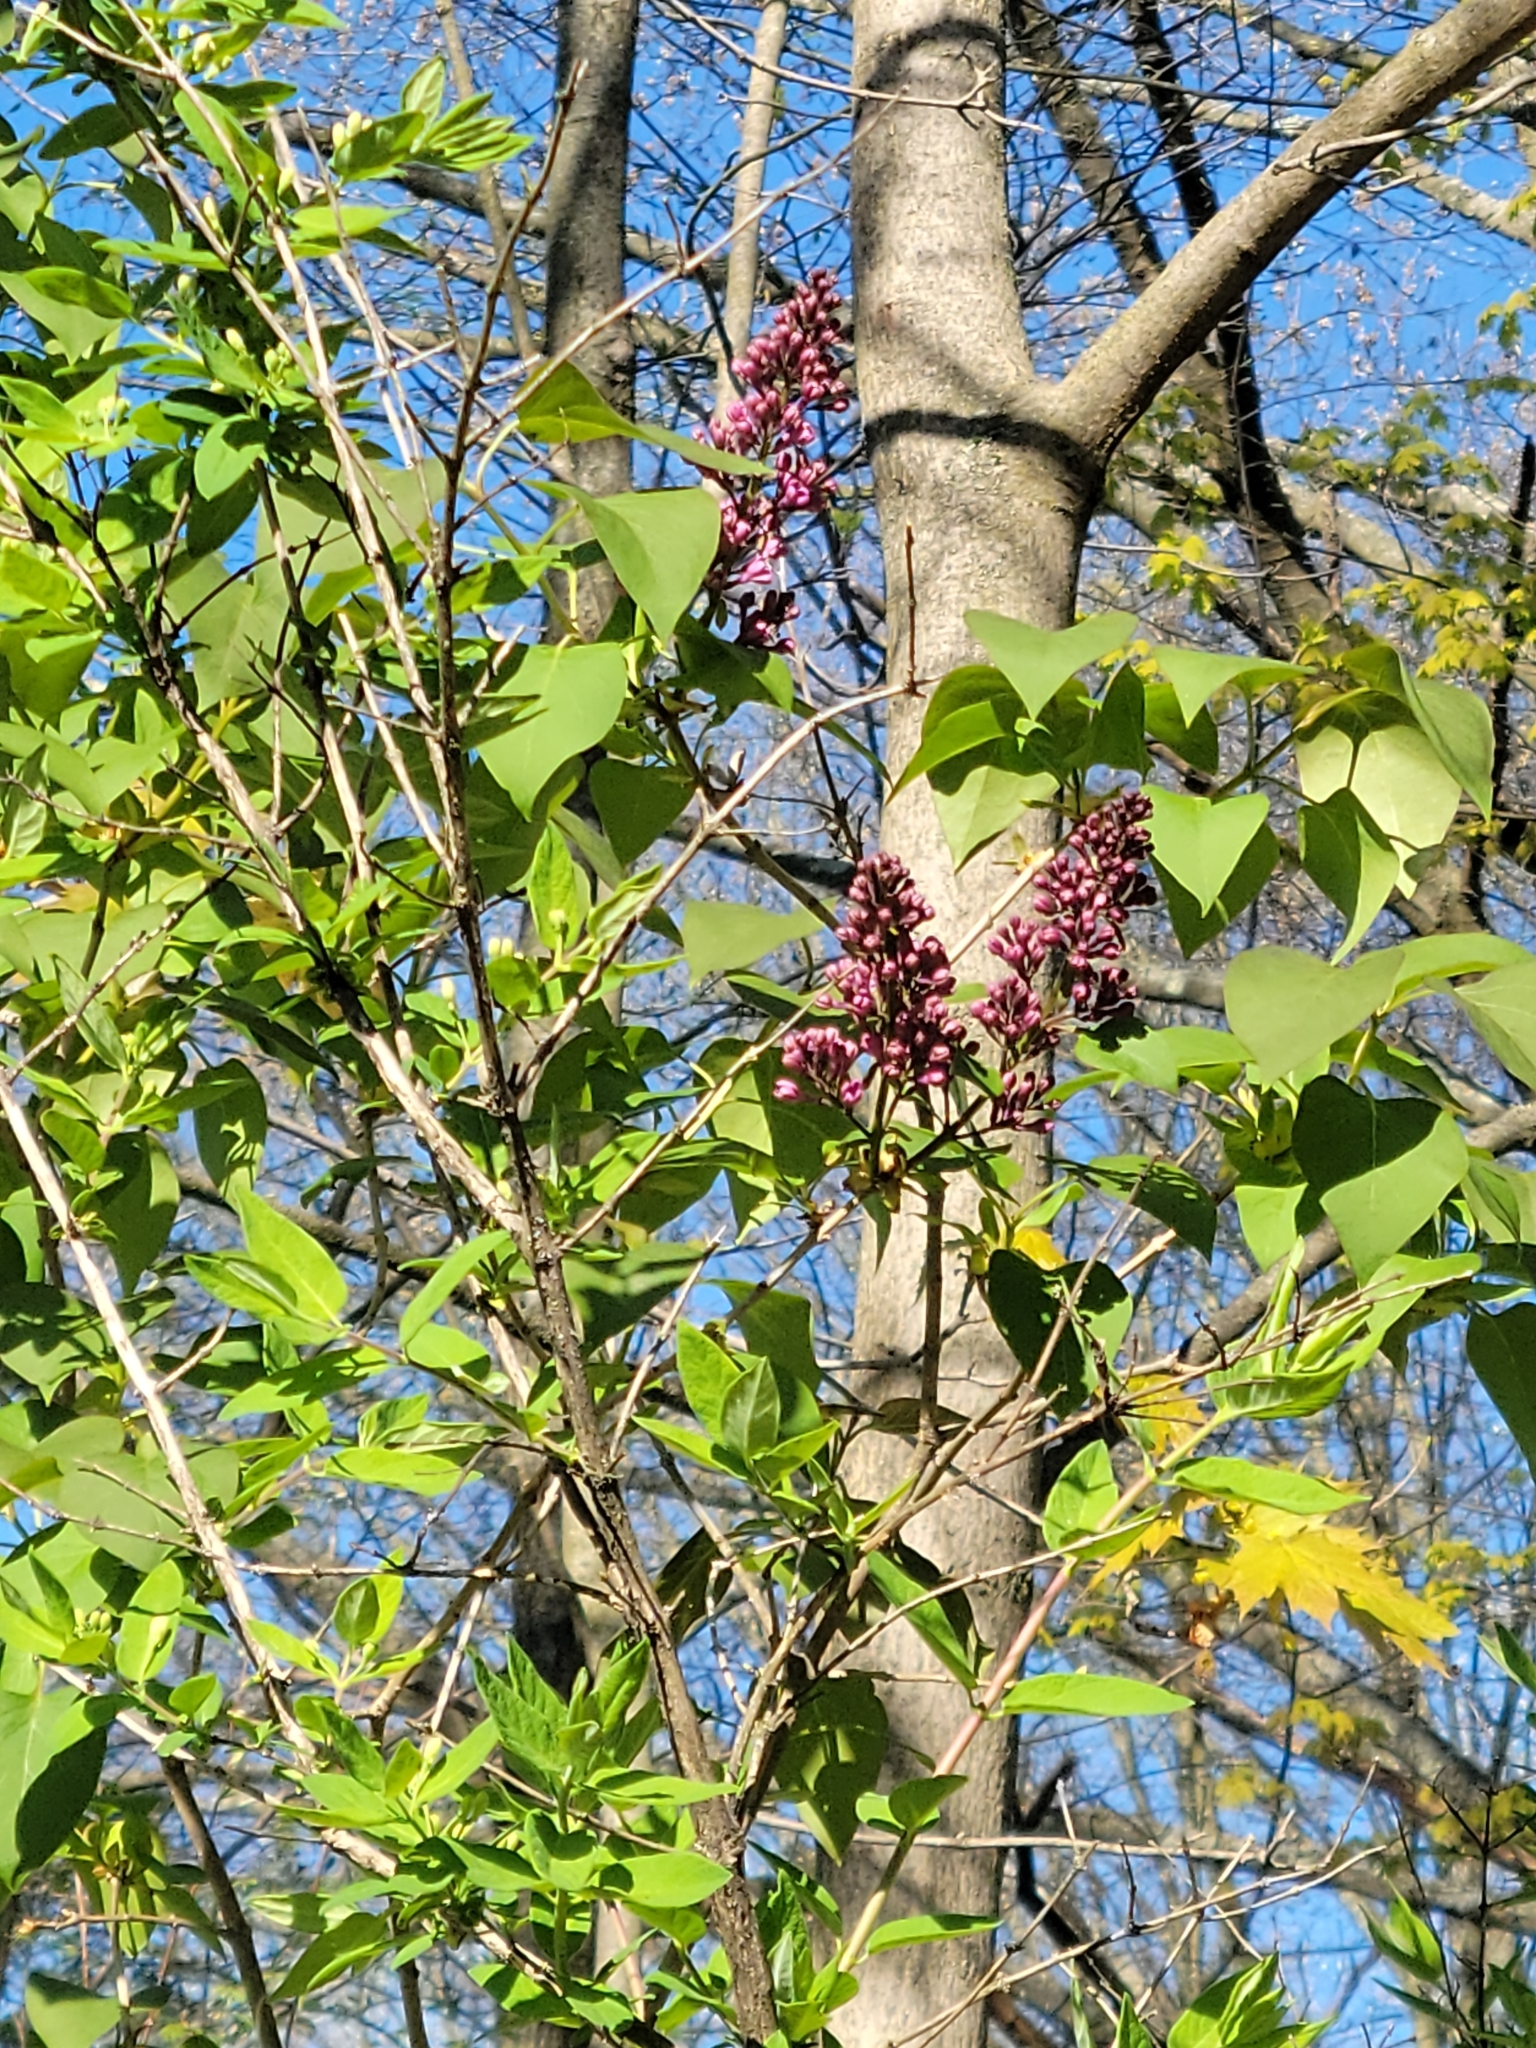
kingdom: Plantae
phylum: Tracheophyta
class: Magnoliopsida
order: Lamiales
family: Oleaceae
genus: Syringa
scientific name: Syringa vulgaris
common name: Common lilac
